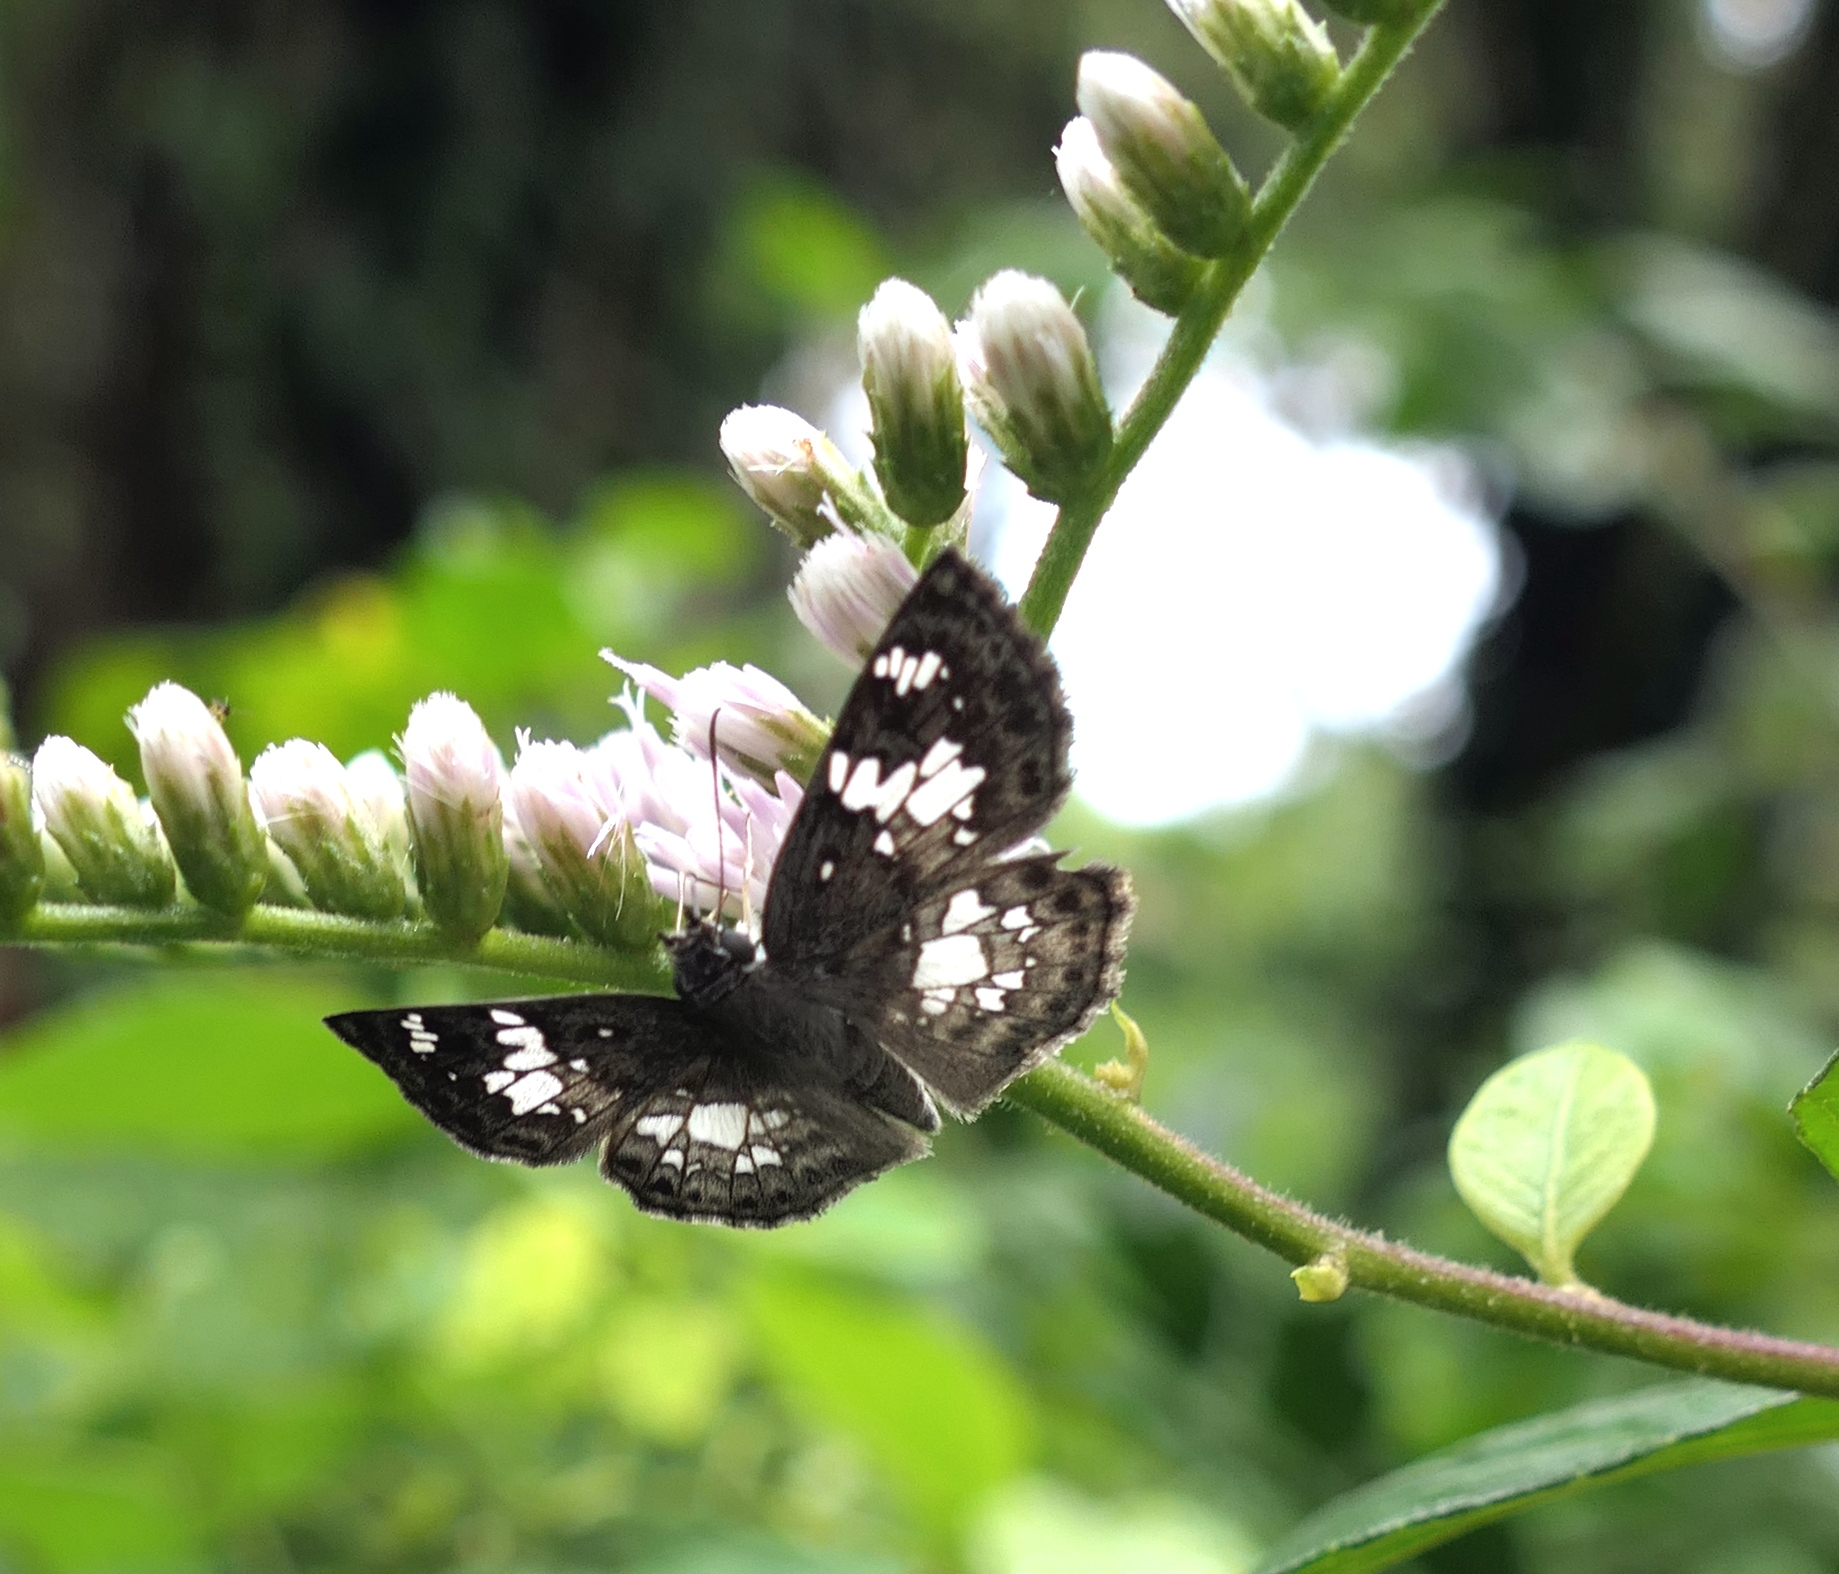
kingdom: Animalia
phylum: Arthropoda
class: Insecta
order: Lepidoptera
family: Hesperiidae
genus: Xenophanes
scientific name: Xenophanes tryxus
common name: Glassy-winged skipper
